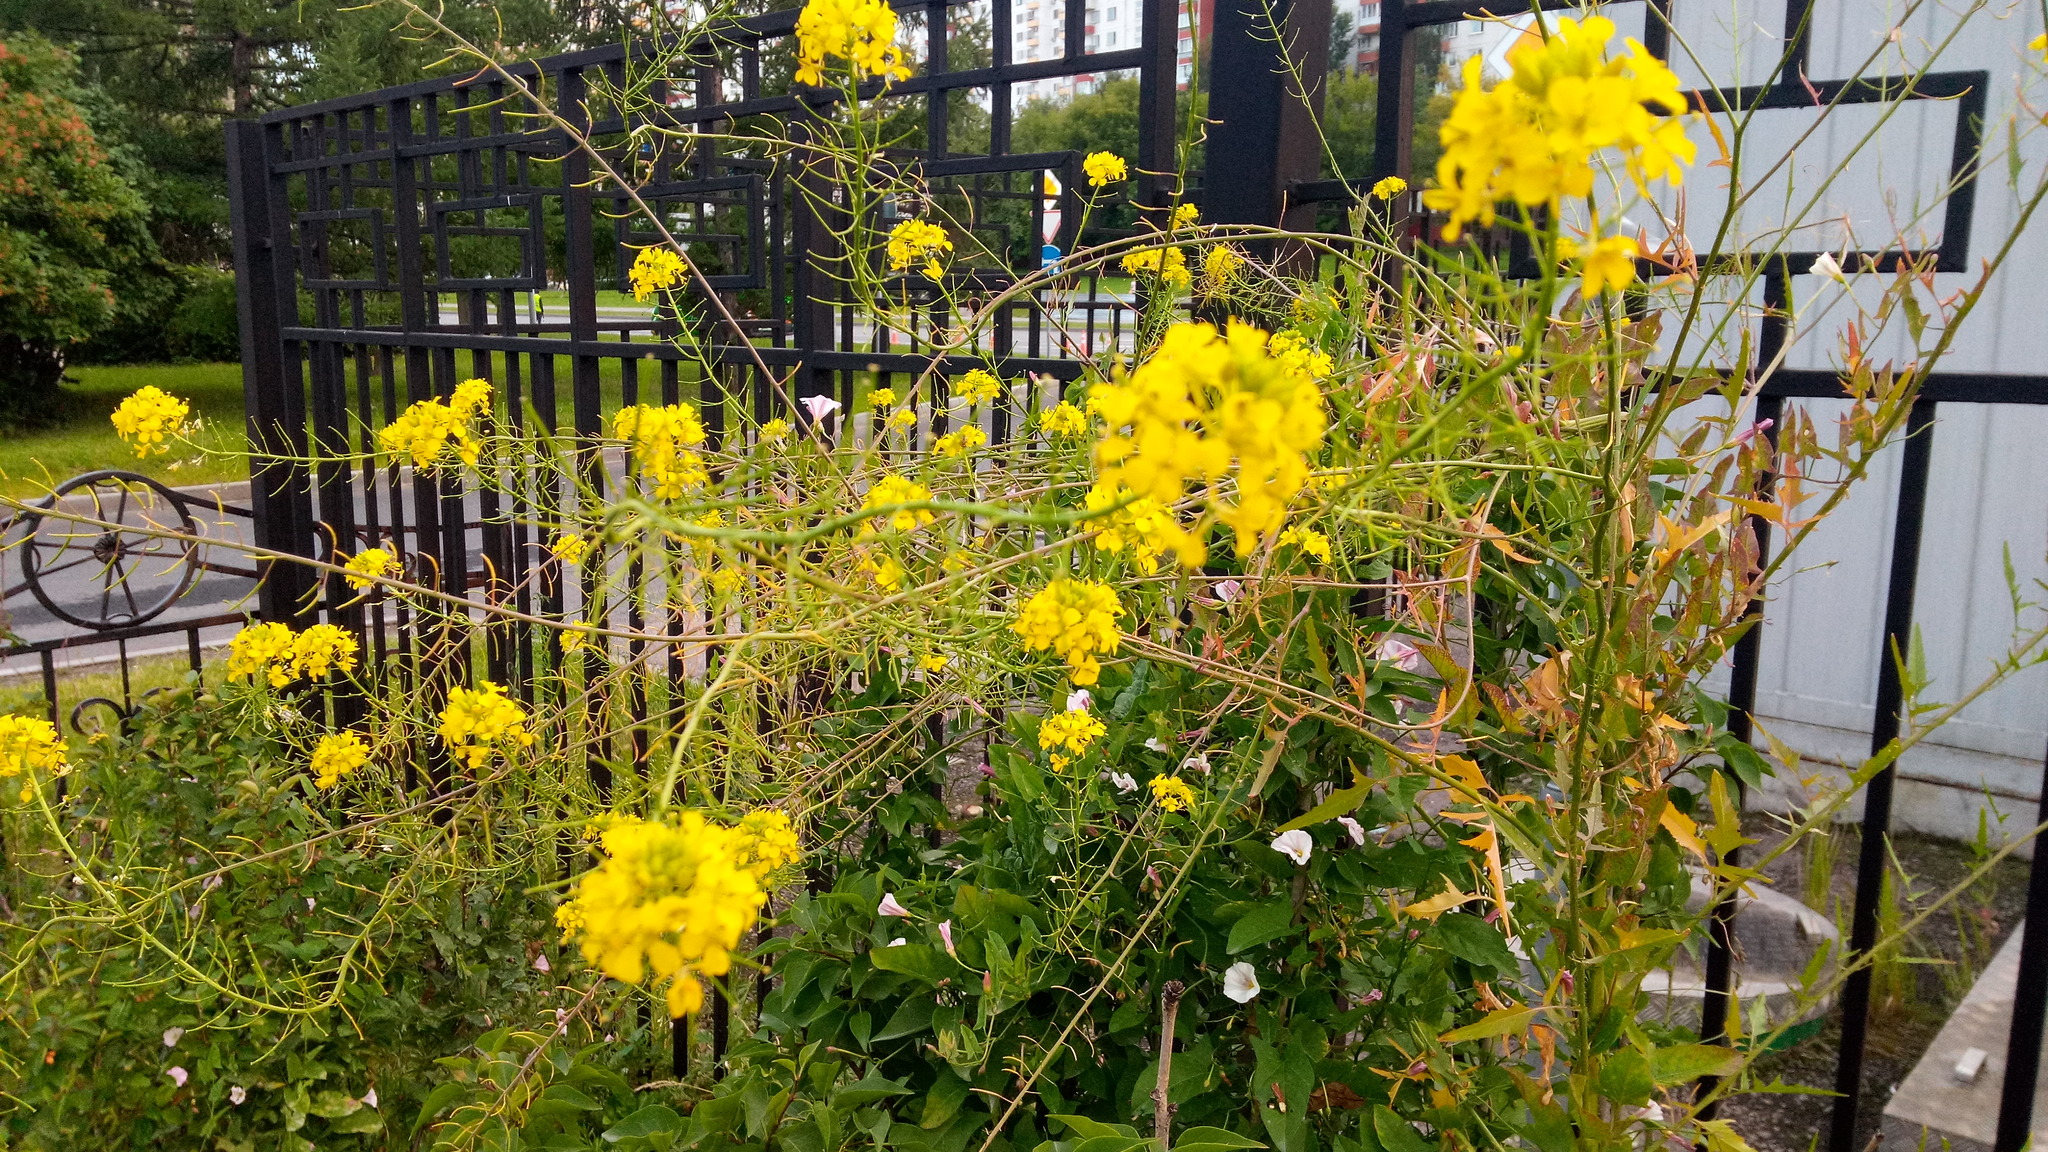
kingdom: Plantae
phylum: Tracheophyta
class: Magnoliopsida
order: Brassicales
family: Brassicaceae
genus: Sisymbrium
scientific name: Sisymbrium loeselii
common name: False london-rocket
